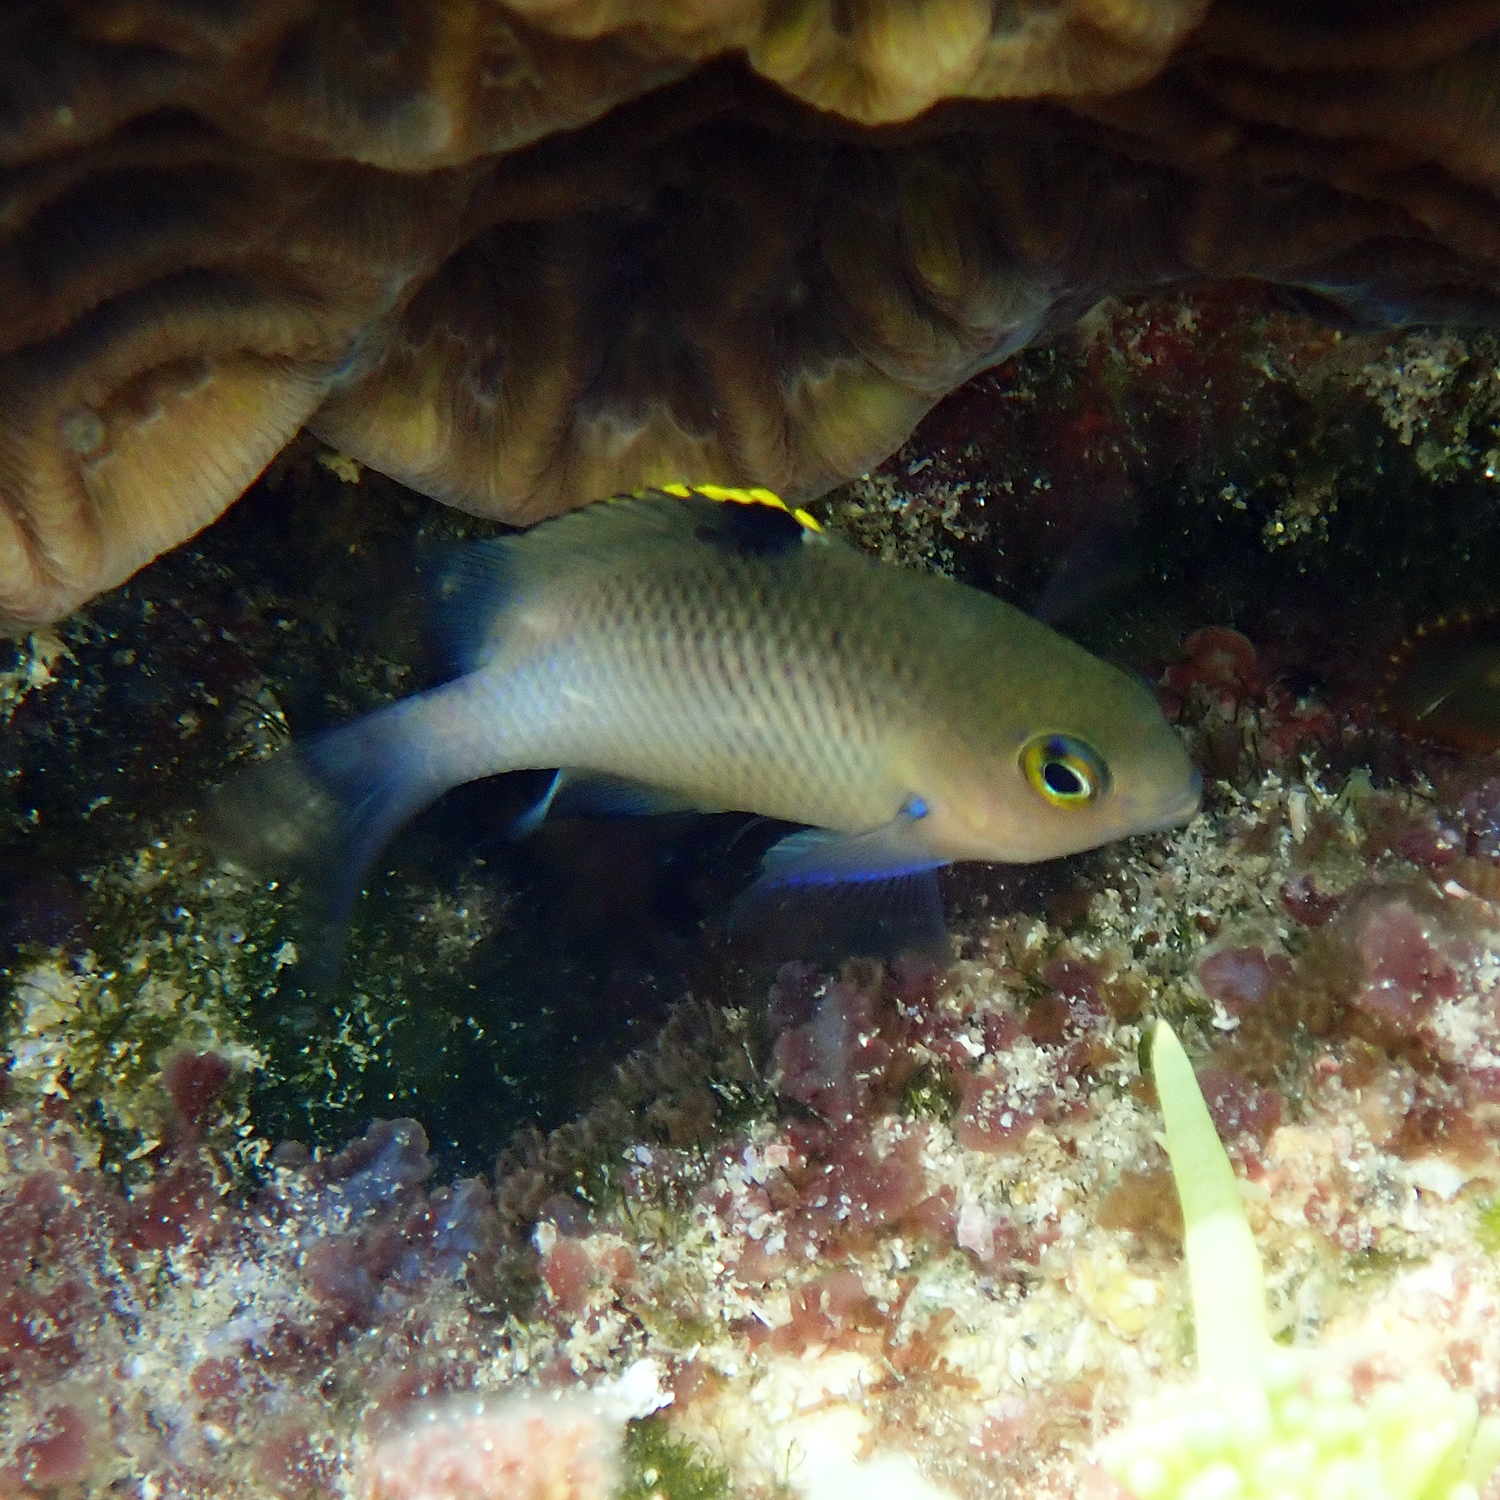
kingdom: Animalia
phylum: Chordata
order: Perciformes
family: Pomacentridae
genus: Stegastes
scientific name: Stegastes fasciolatus
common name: Pacific gregory
